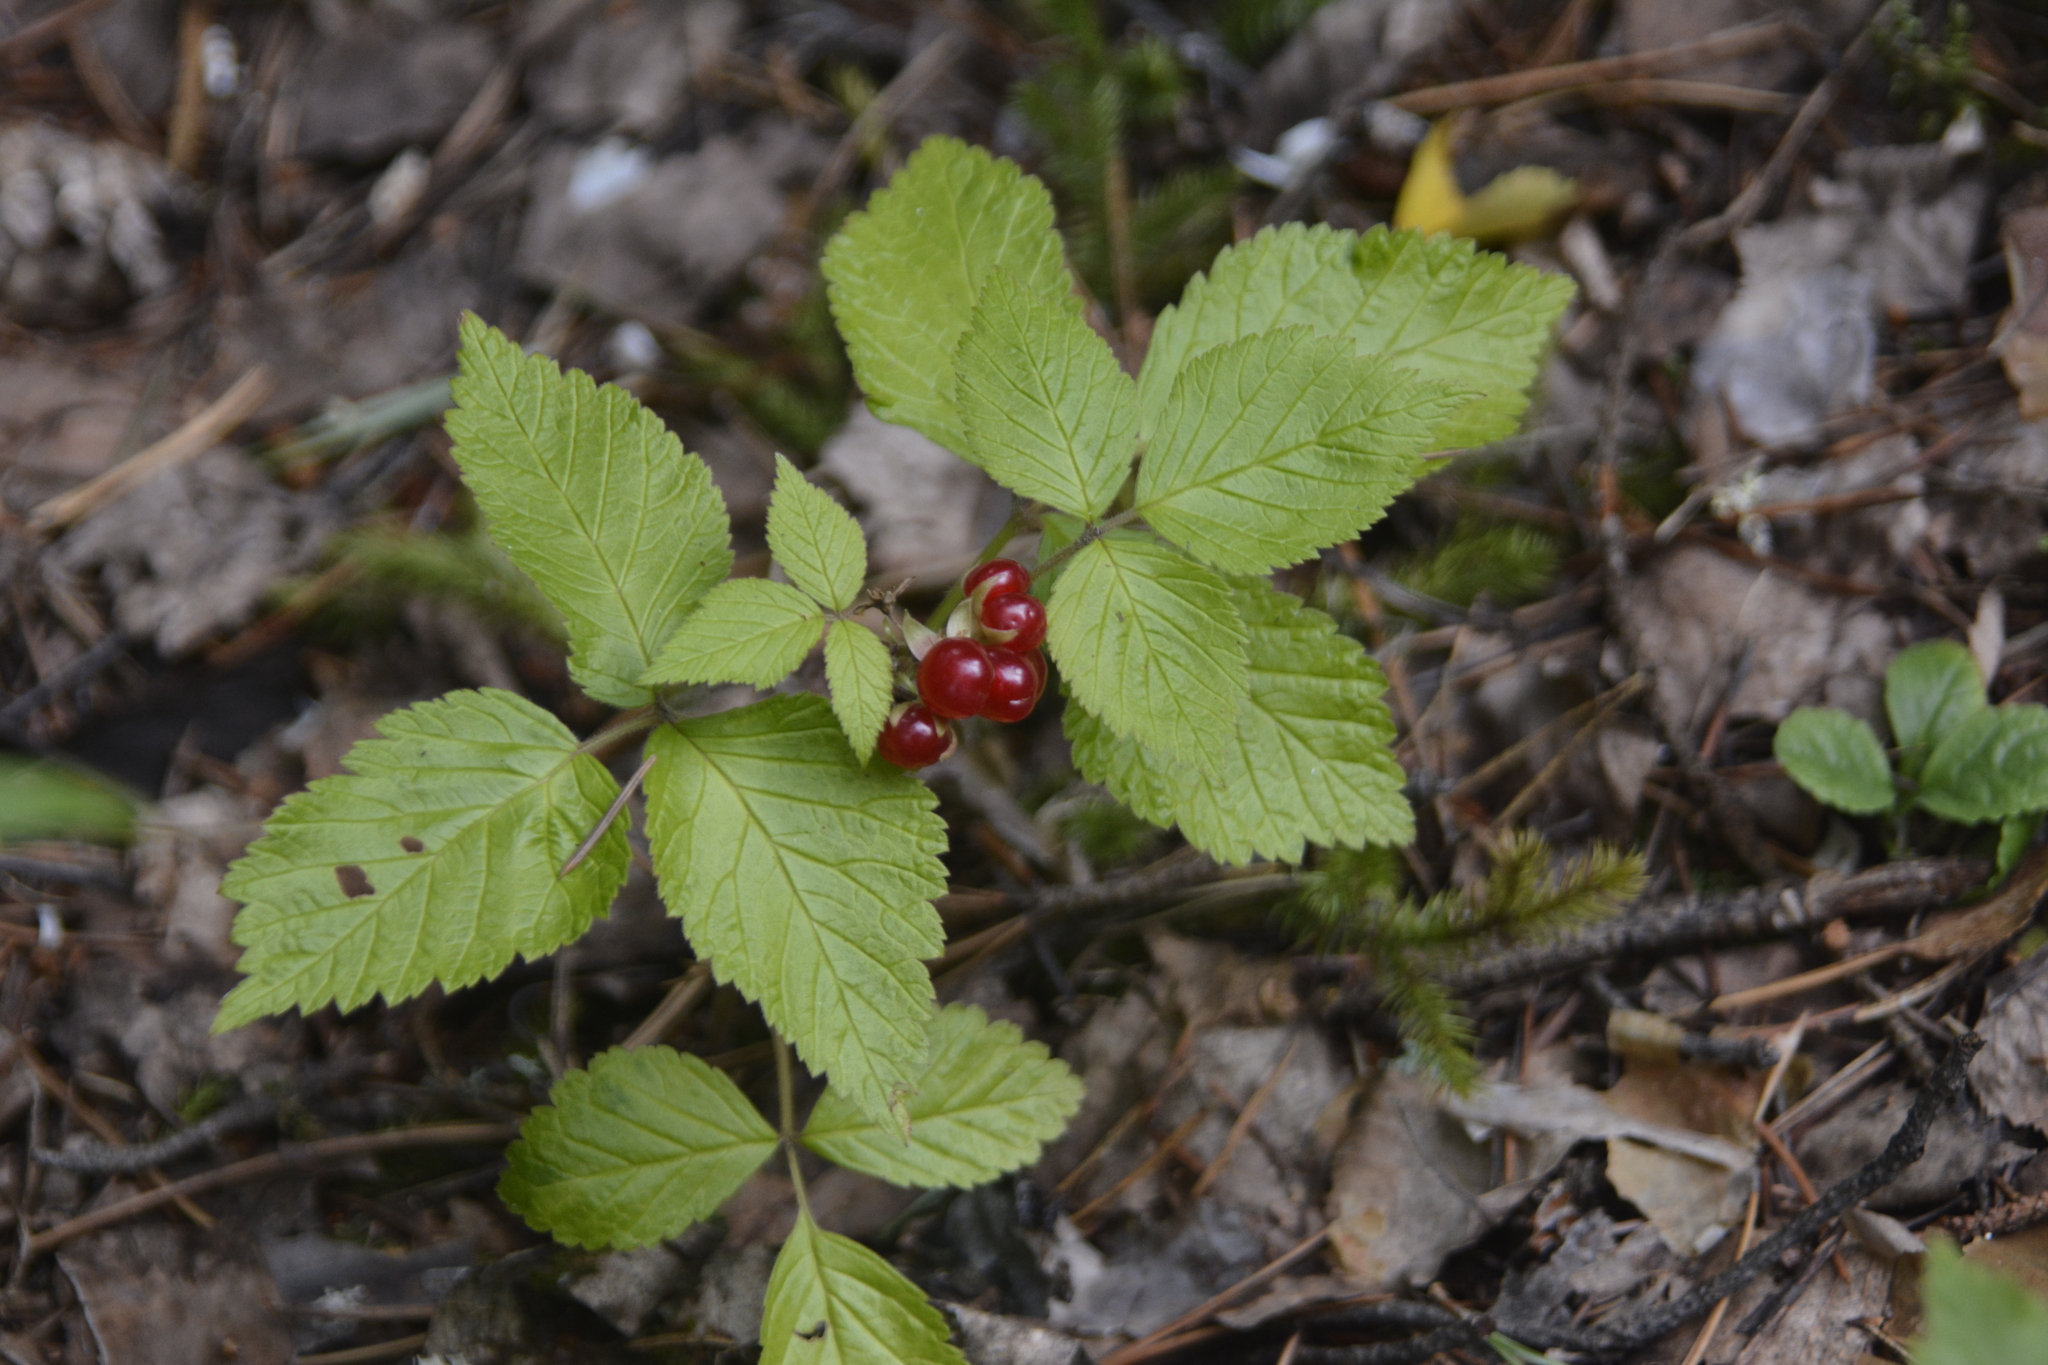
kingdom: Plantae
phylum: Tracheophyta
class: Magnoliopsida
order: Rosales
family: Rosaceae
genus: Rubus
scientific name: Rubus saxatilis
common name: Stone bramble
